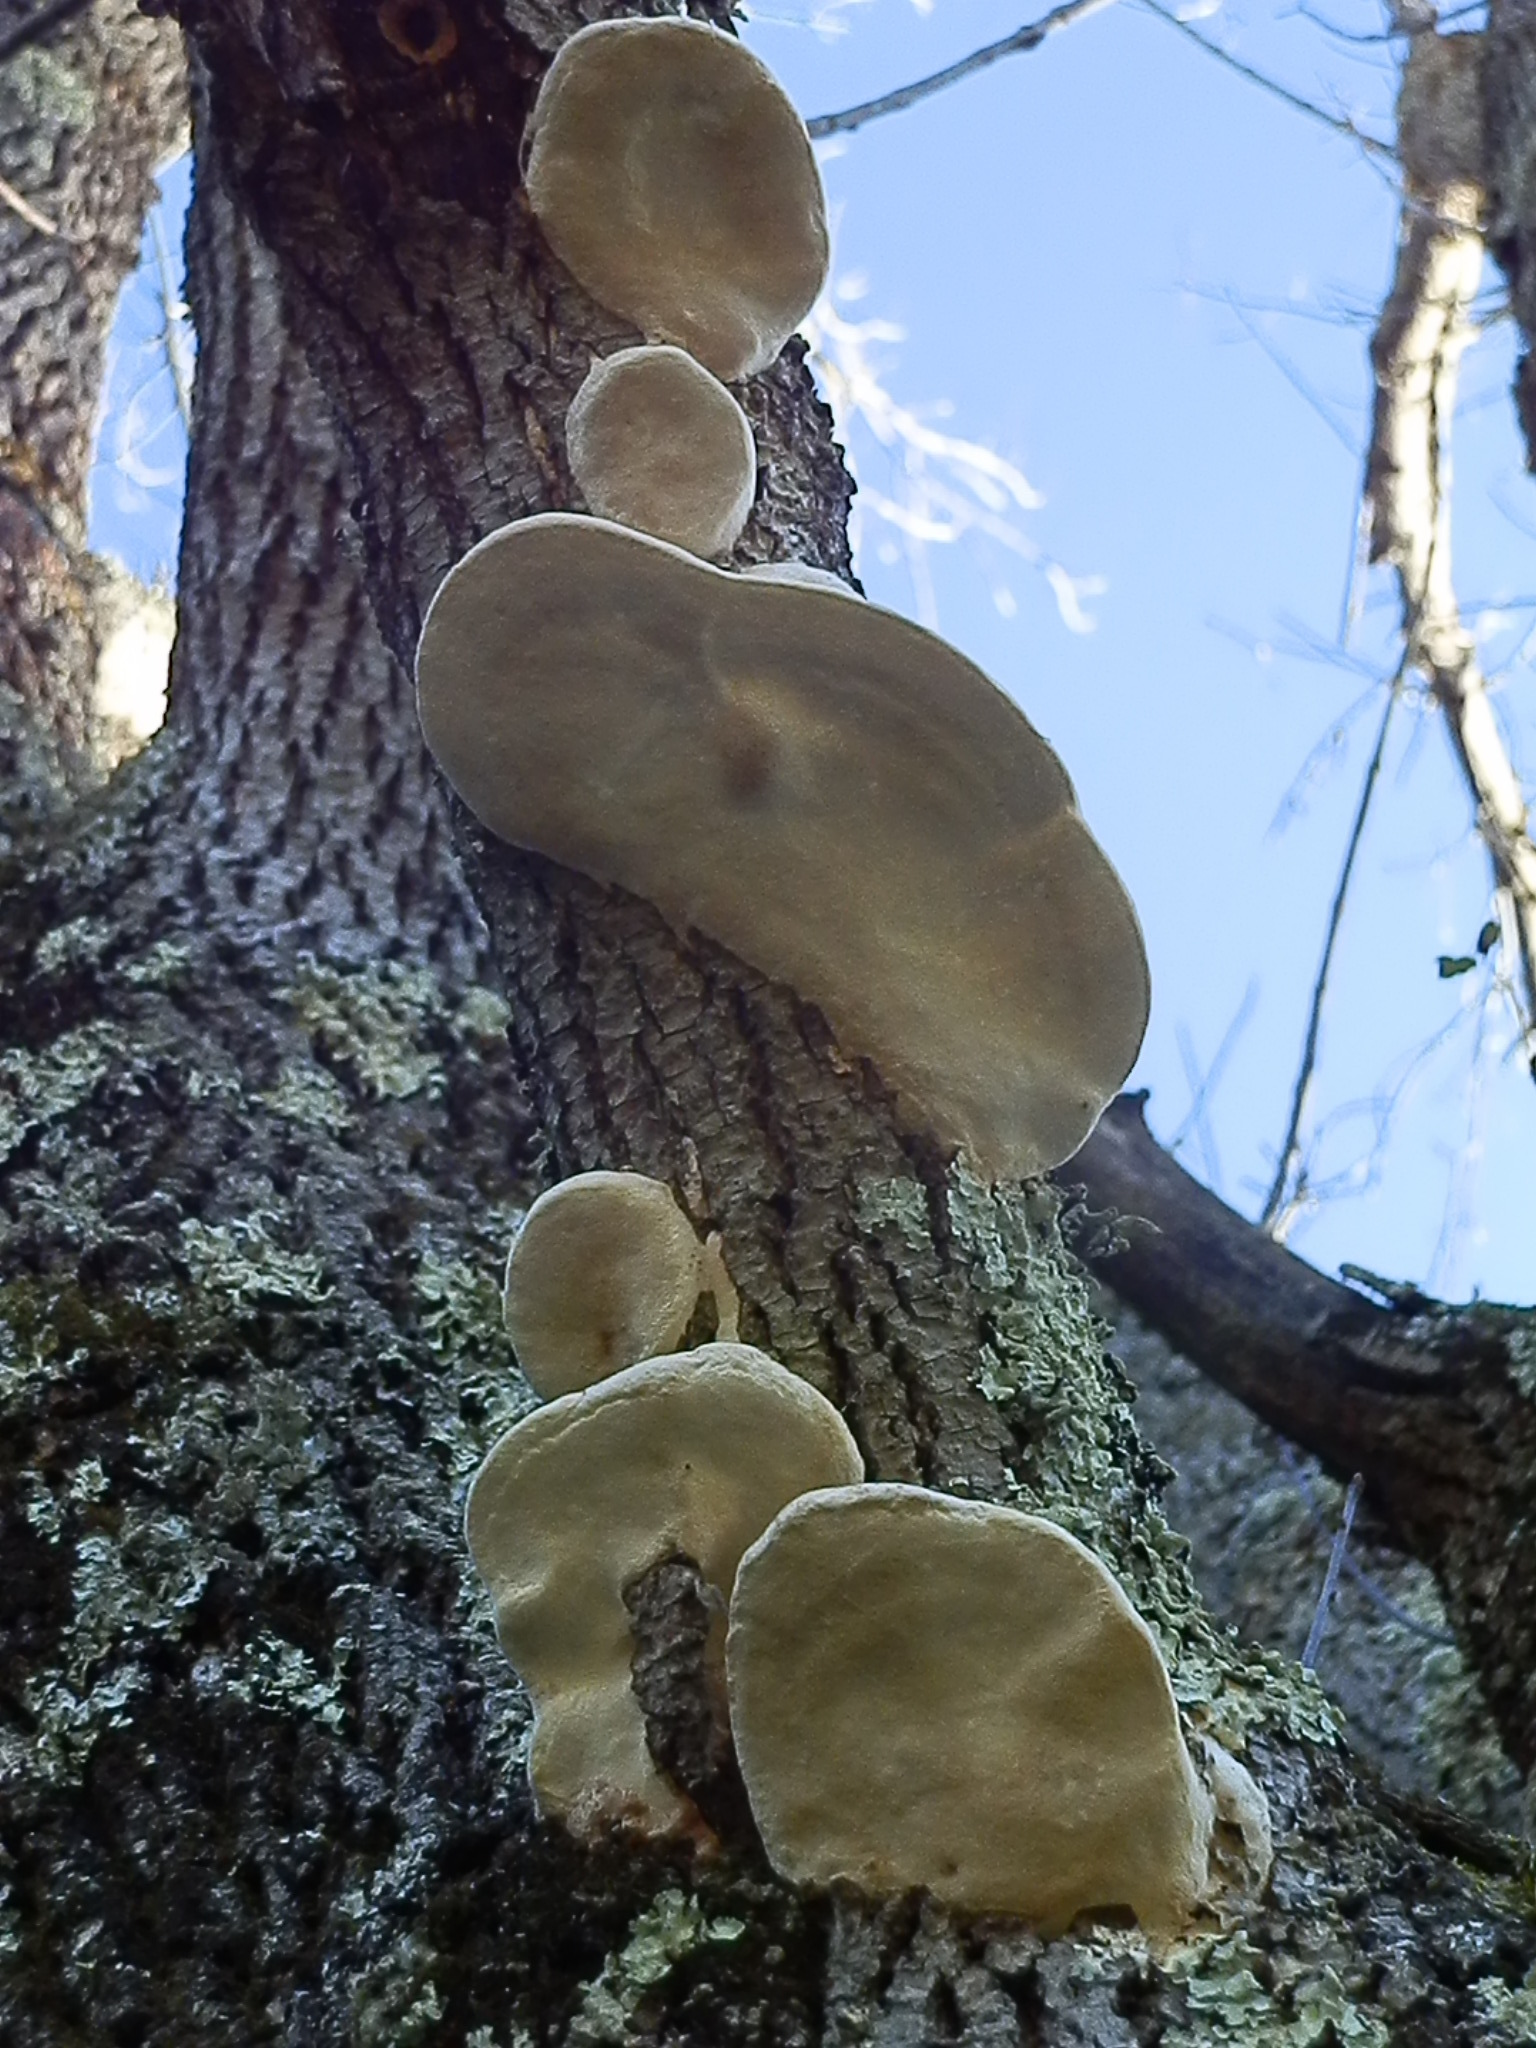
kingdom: Fungi
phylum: Basidiomycota
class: Agaricomycetes
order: Polyporales
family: Polyporaceae
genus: Perenniporia
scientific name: Perenniporia fraxinophila
